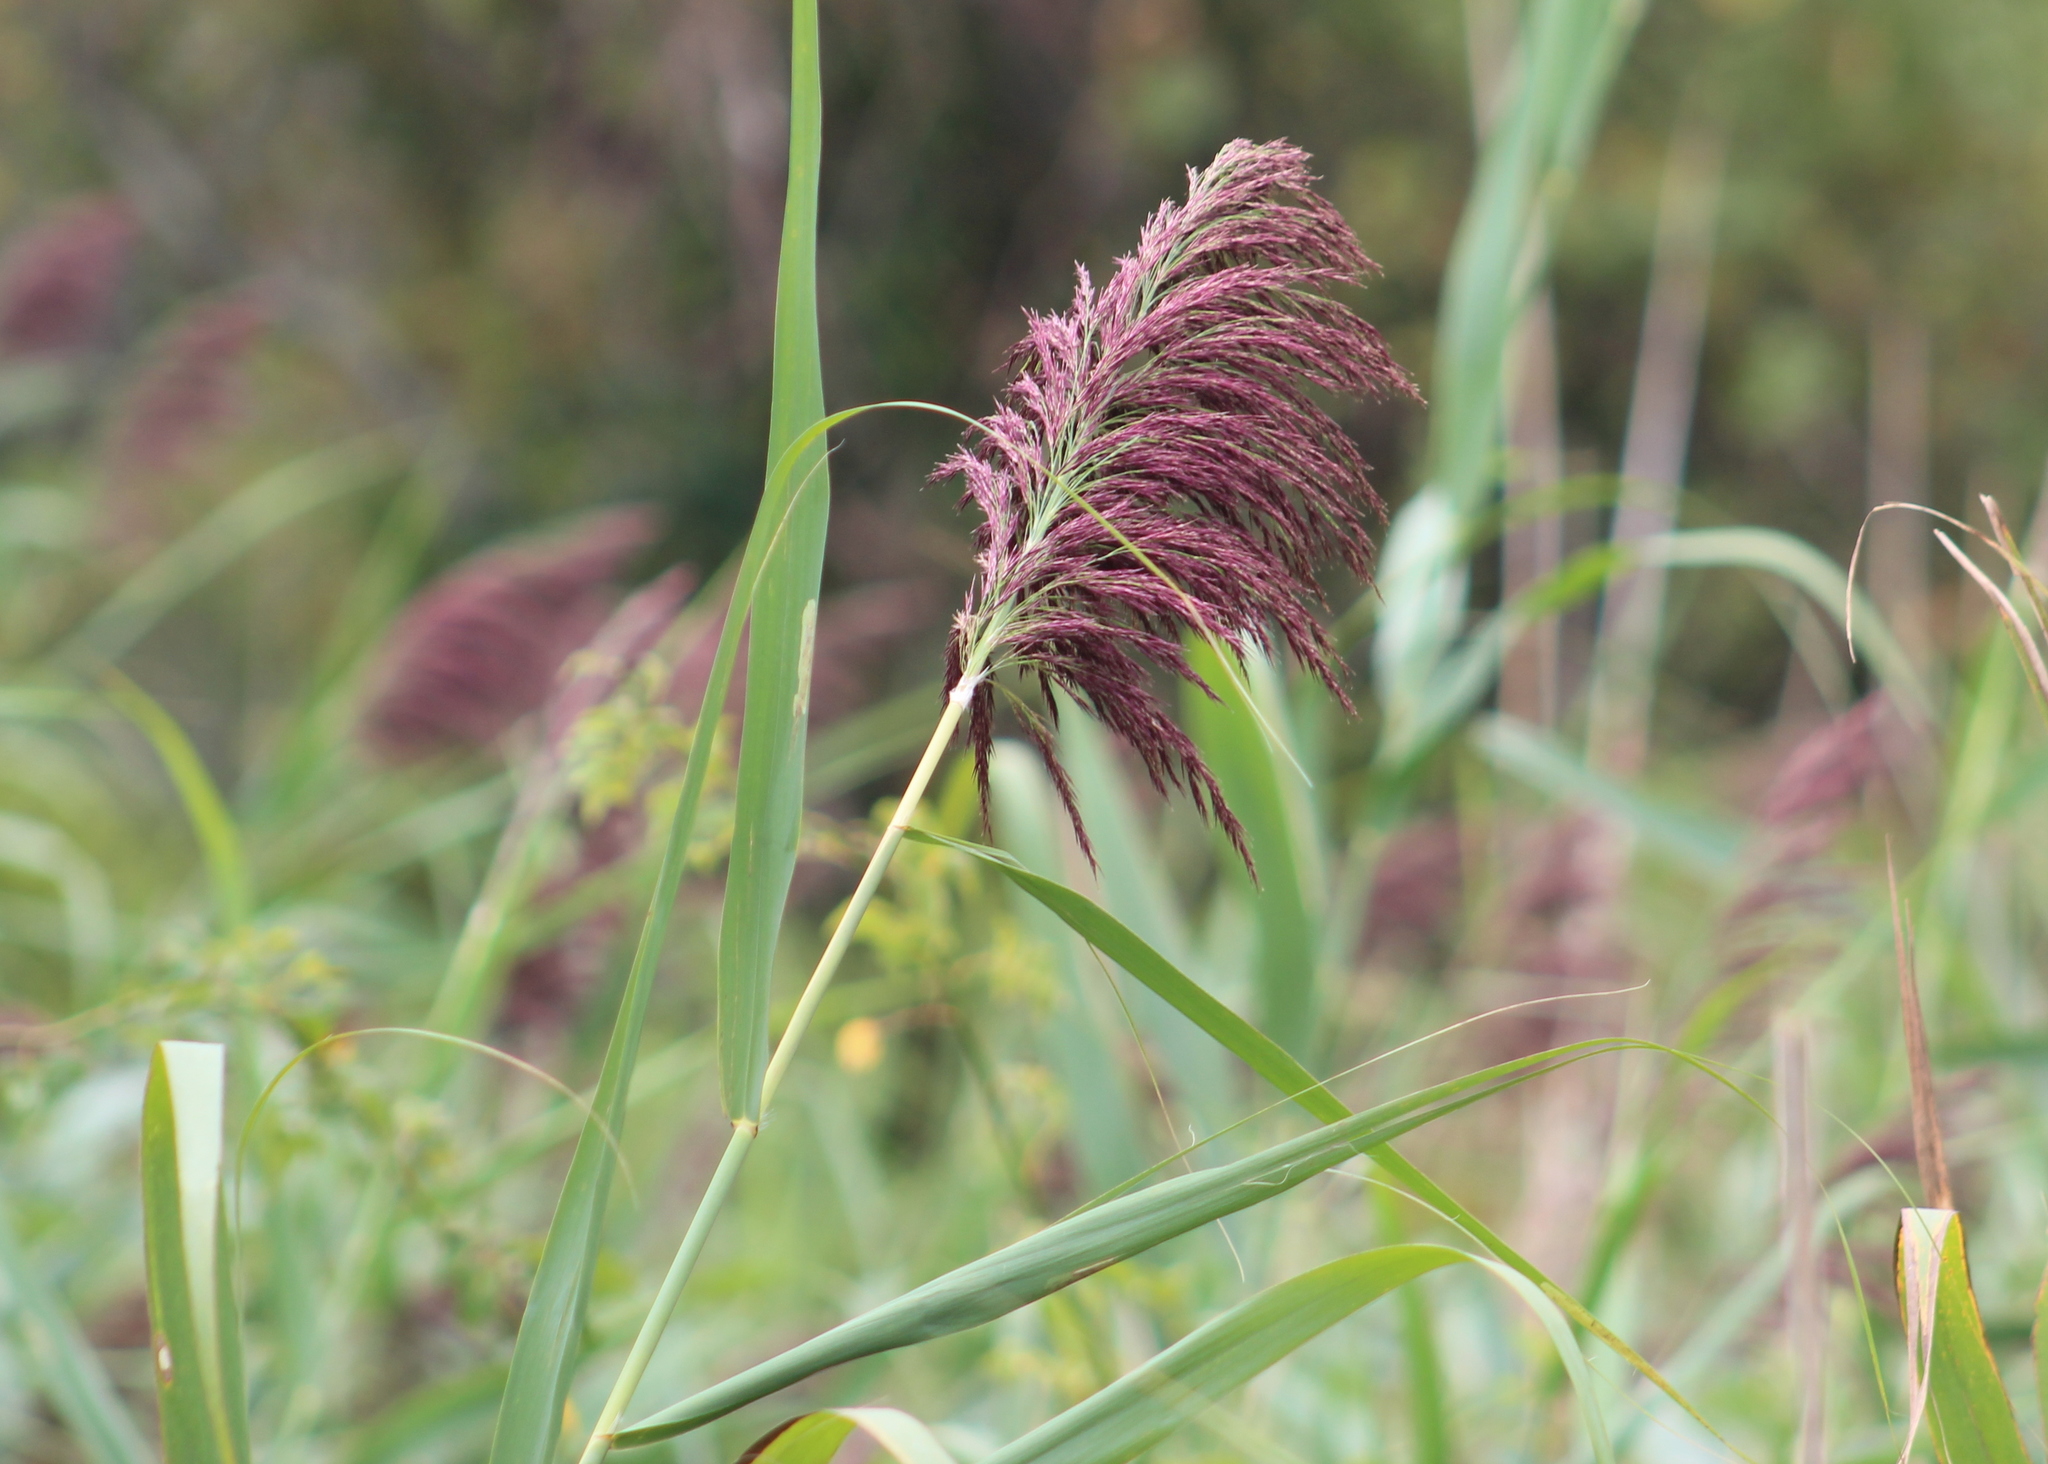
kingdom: Plantae
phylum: Tracheophyta
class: Liliopsida
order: Poales
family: Poaceae
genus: Phragmites
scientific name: Phragmites australis
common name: Common reed
